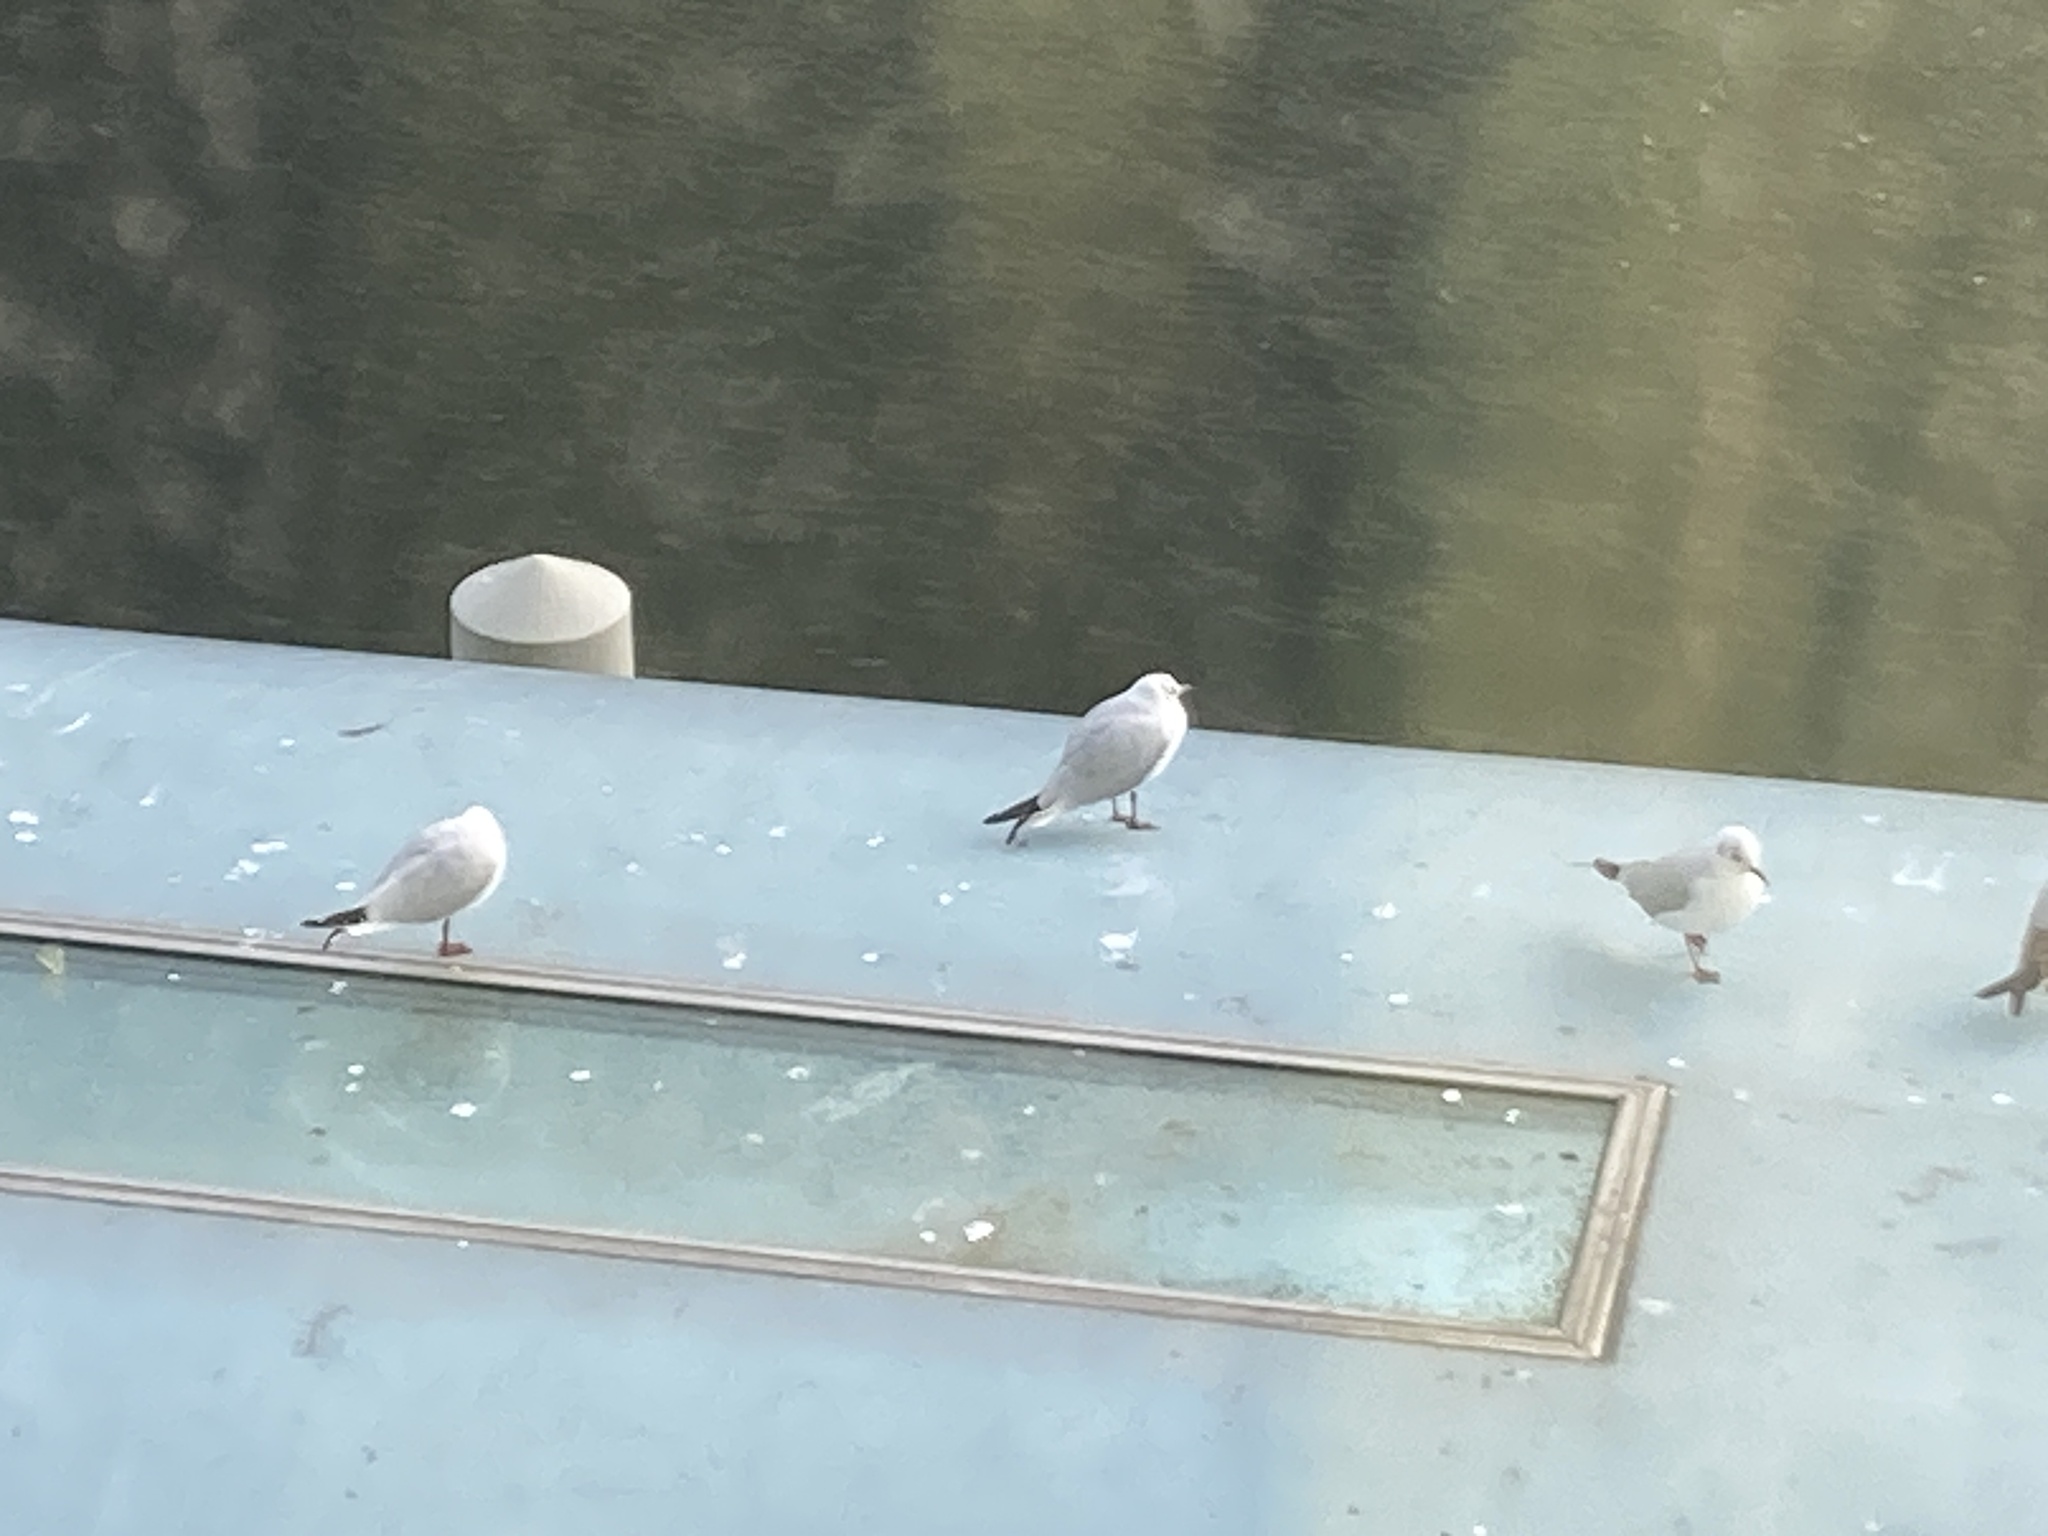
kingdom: Animalia
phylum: Chordata
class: Aves
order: Charadriiformes
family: Laridae
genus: Chroicocephalus
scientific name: Chroicocephalus ridibundus
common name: Black-headed gull
